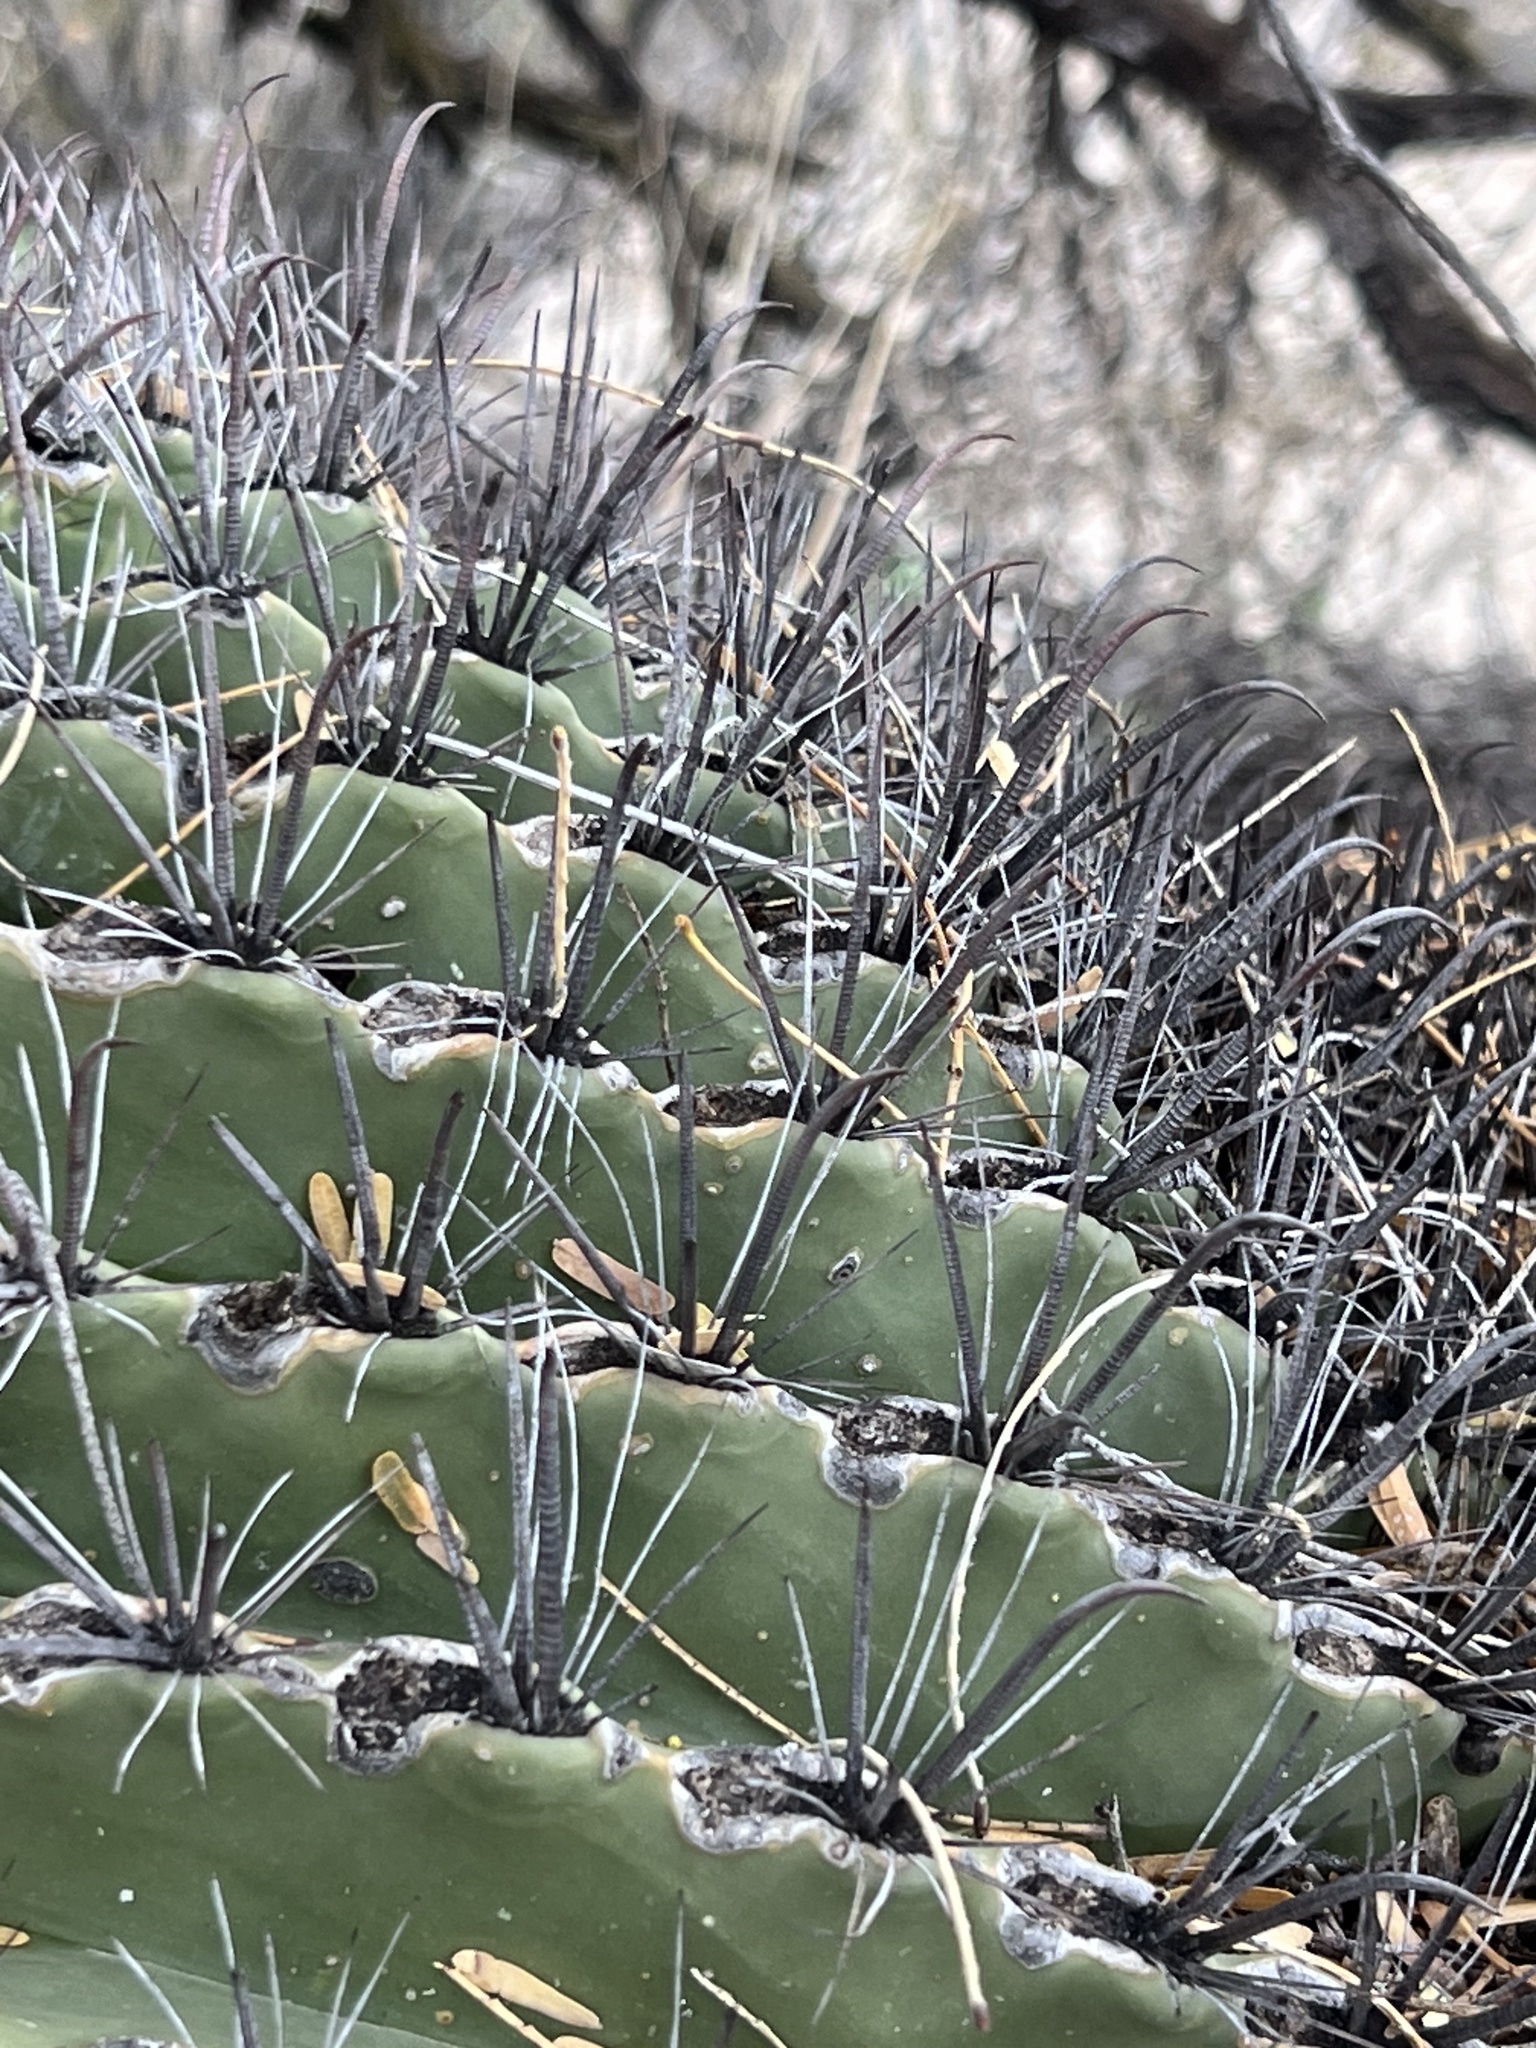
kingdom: Plantae
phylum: Tracheophyta
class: Magnoliopsida
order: Caryophyllales
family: Cactaceae
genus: Ferocactus
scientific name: Ferocactus wislizeni
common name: Candy barrel cactus
